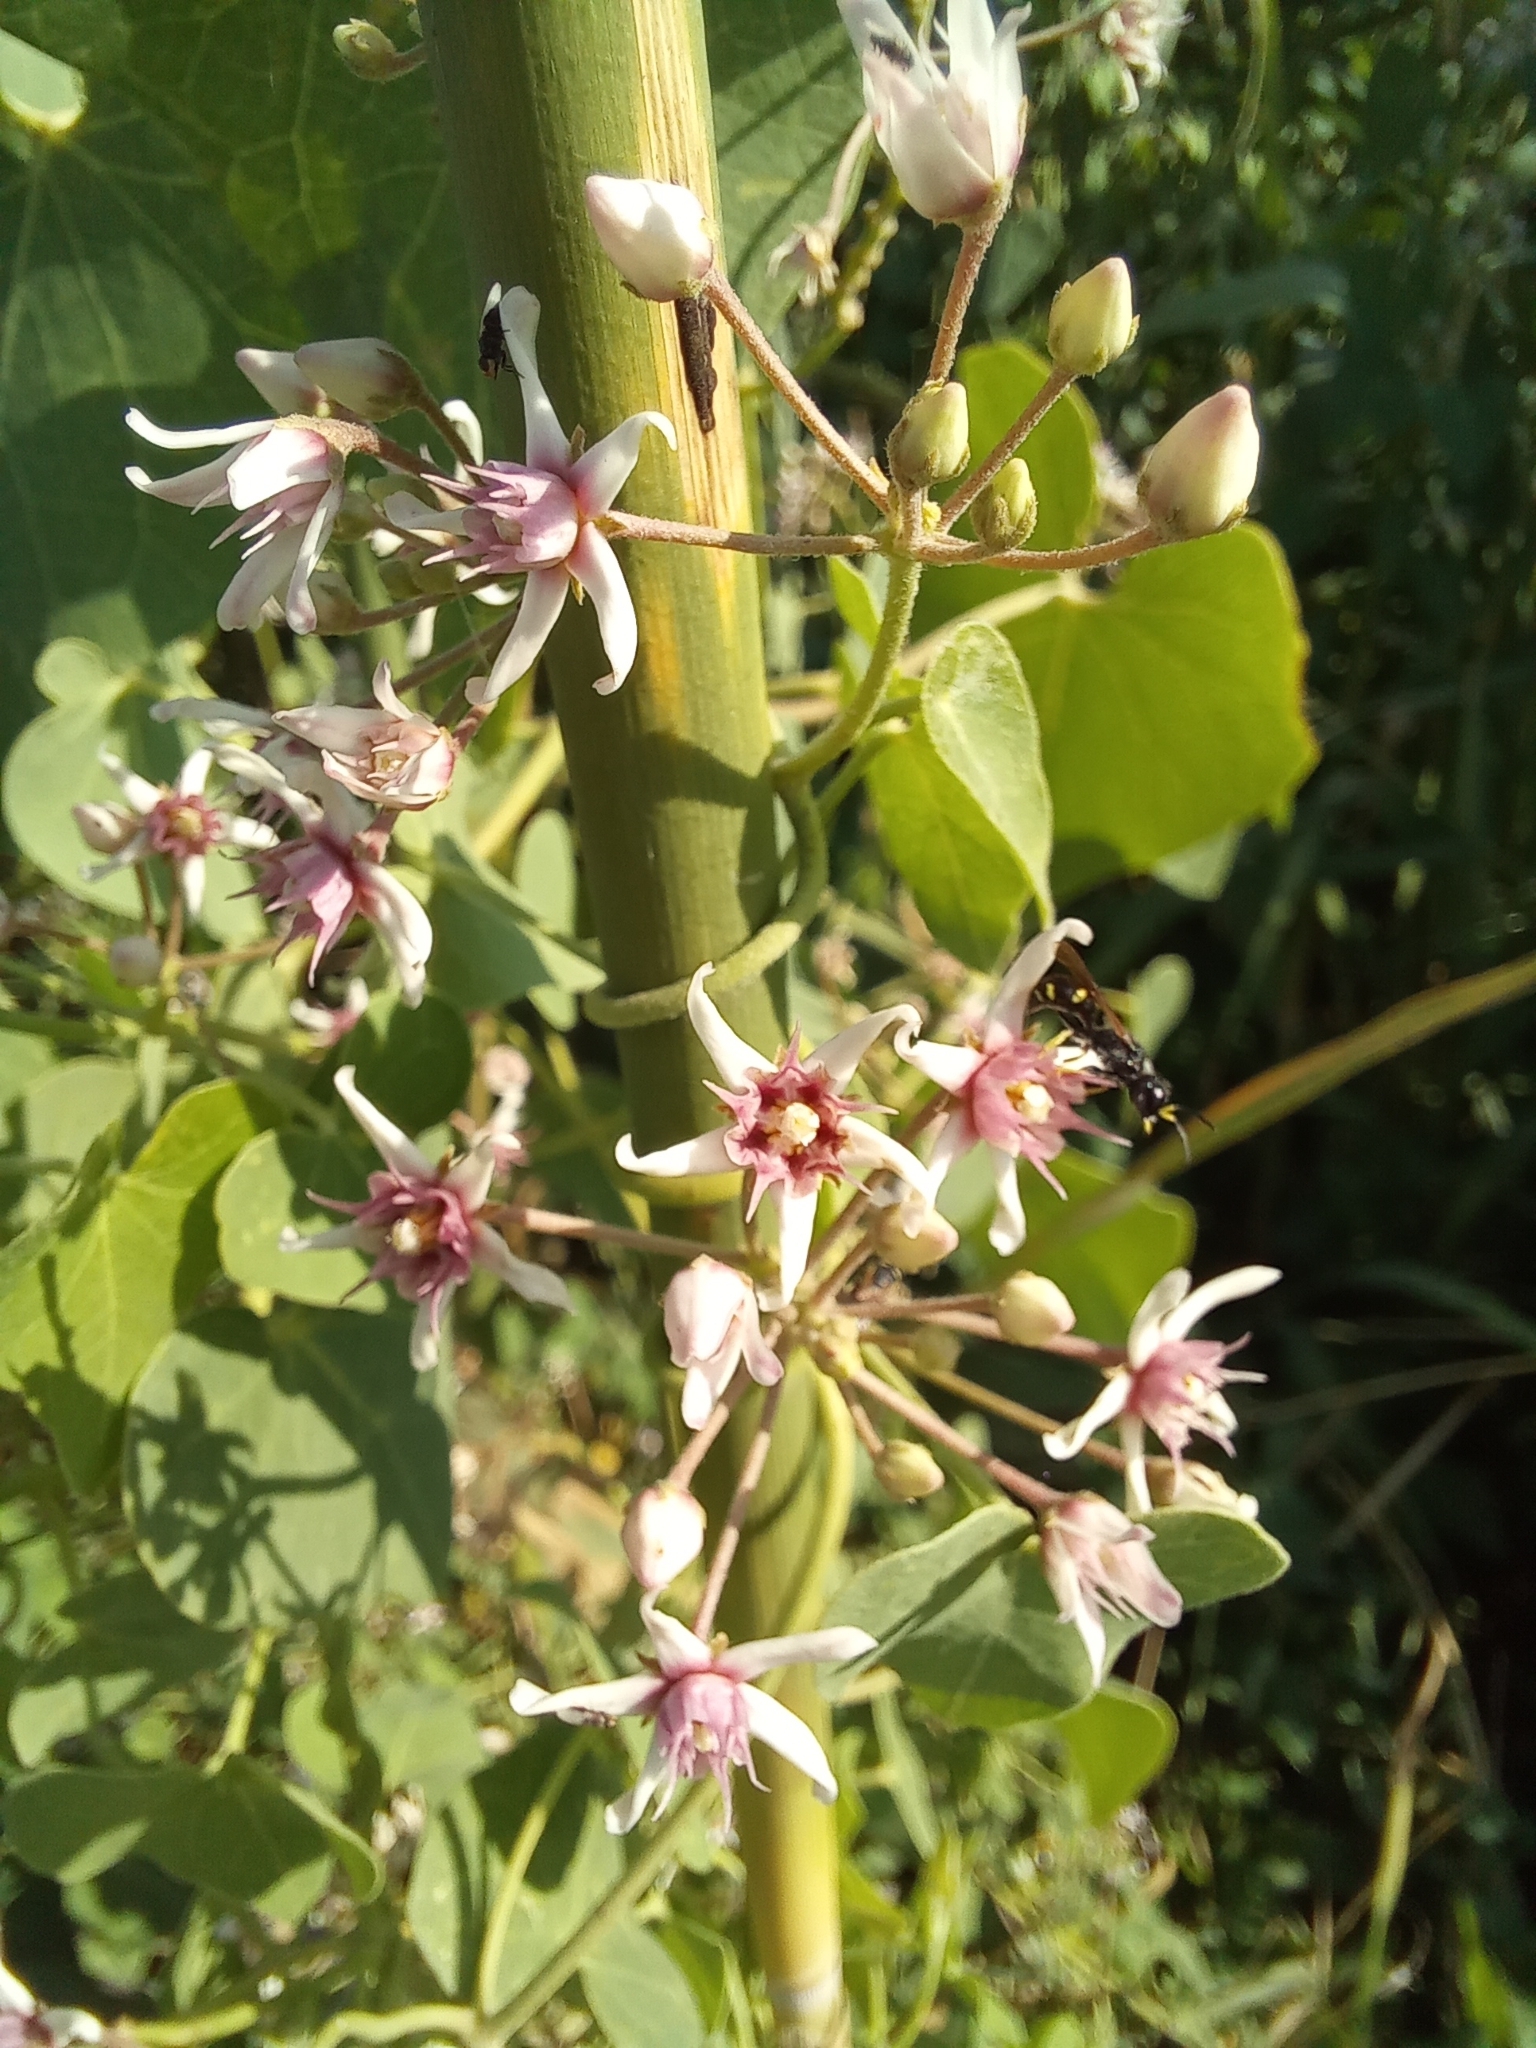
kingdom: Plantae
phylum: Tracheophyta
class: Magnoliopsida
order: Gentianales
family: Apocynaceae
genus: Cynanchum
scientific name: Cynanchum acutum
